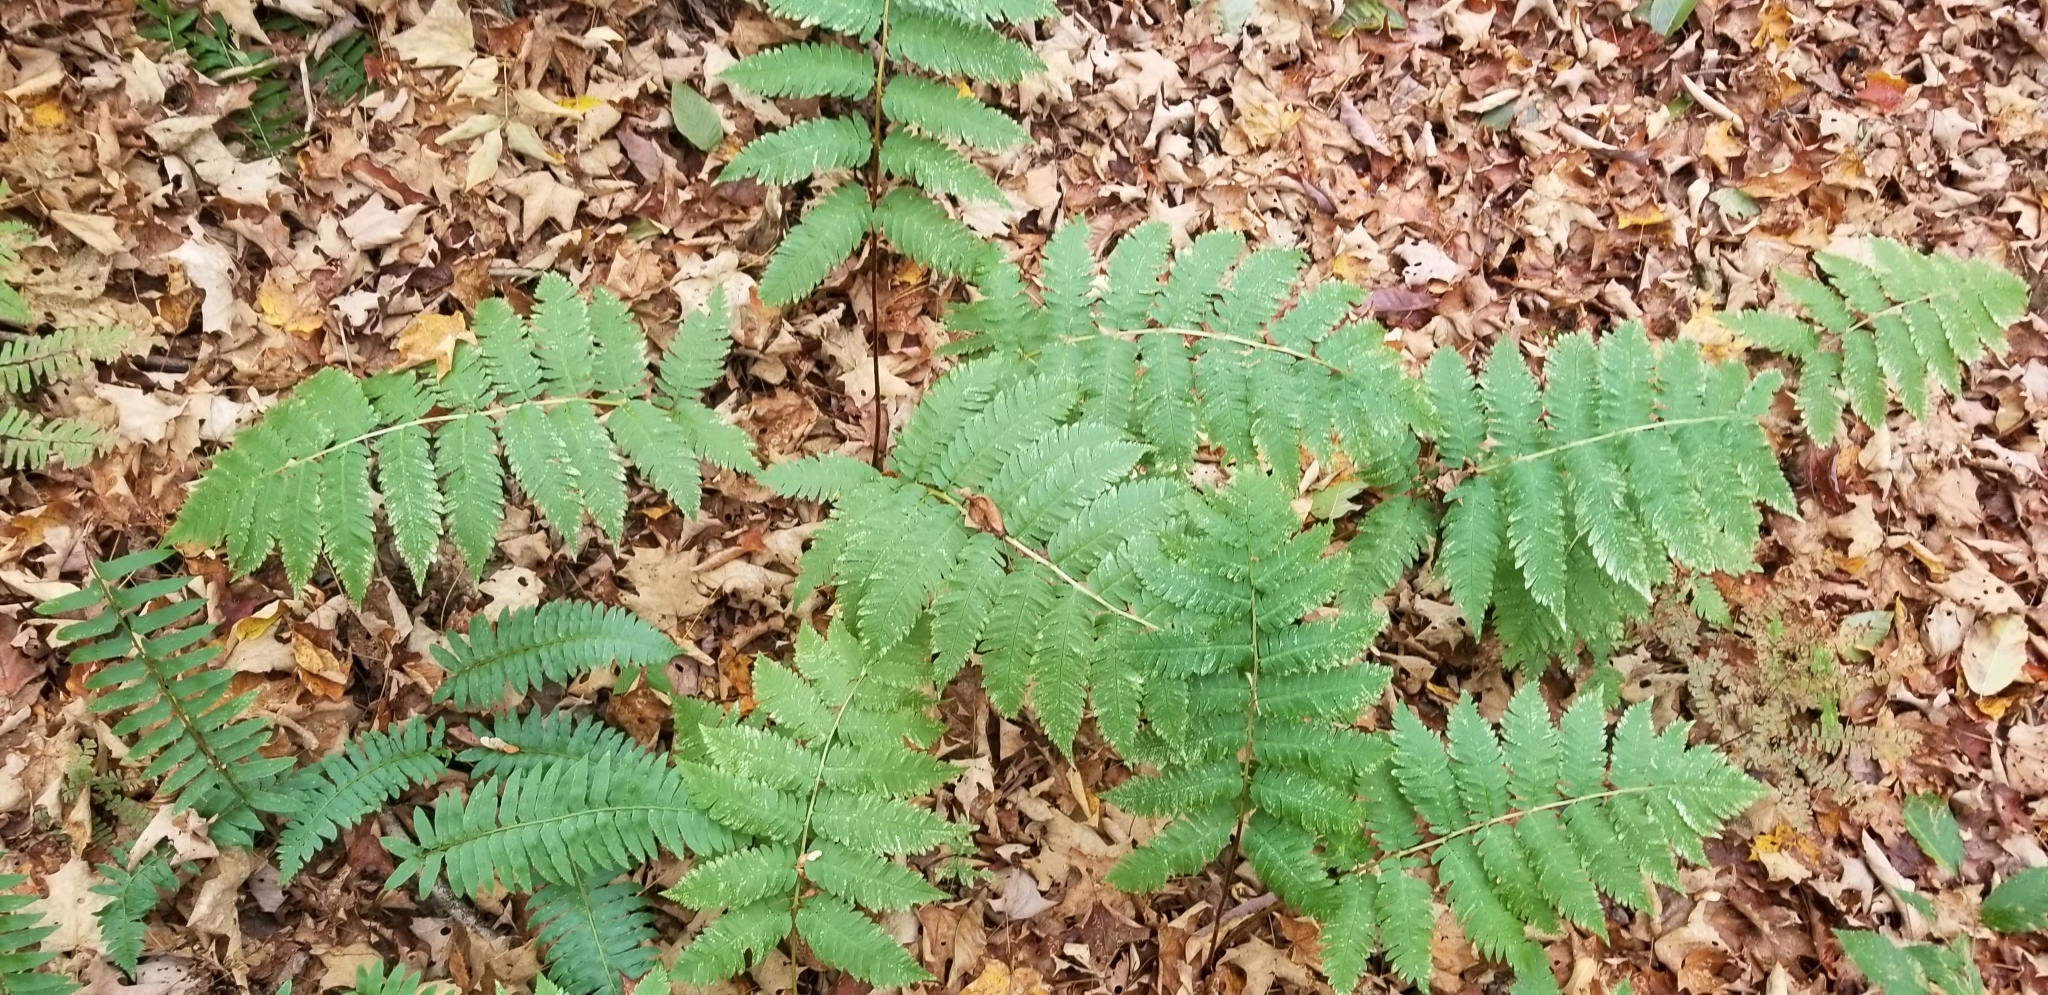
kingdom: Plantae
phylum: Tracheophyta
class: Polypodiopsida
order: Polypodiales
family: Dryopteridaceae
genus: Dryopteris
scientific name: Dryopteris goldieana
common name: Goldie's fern
